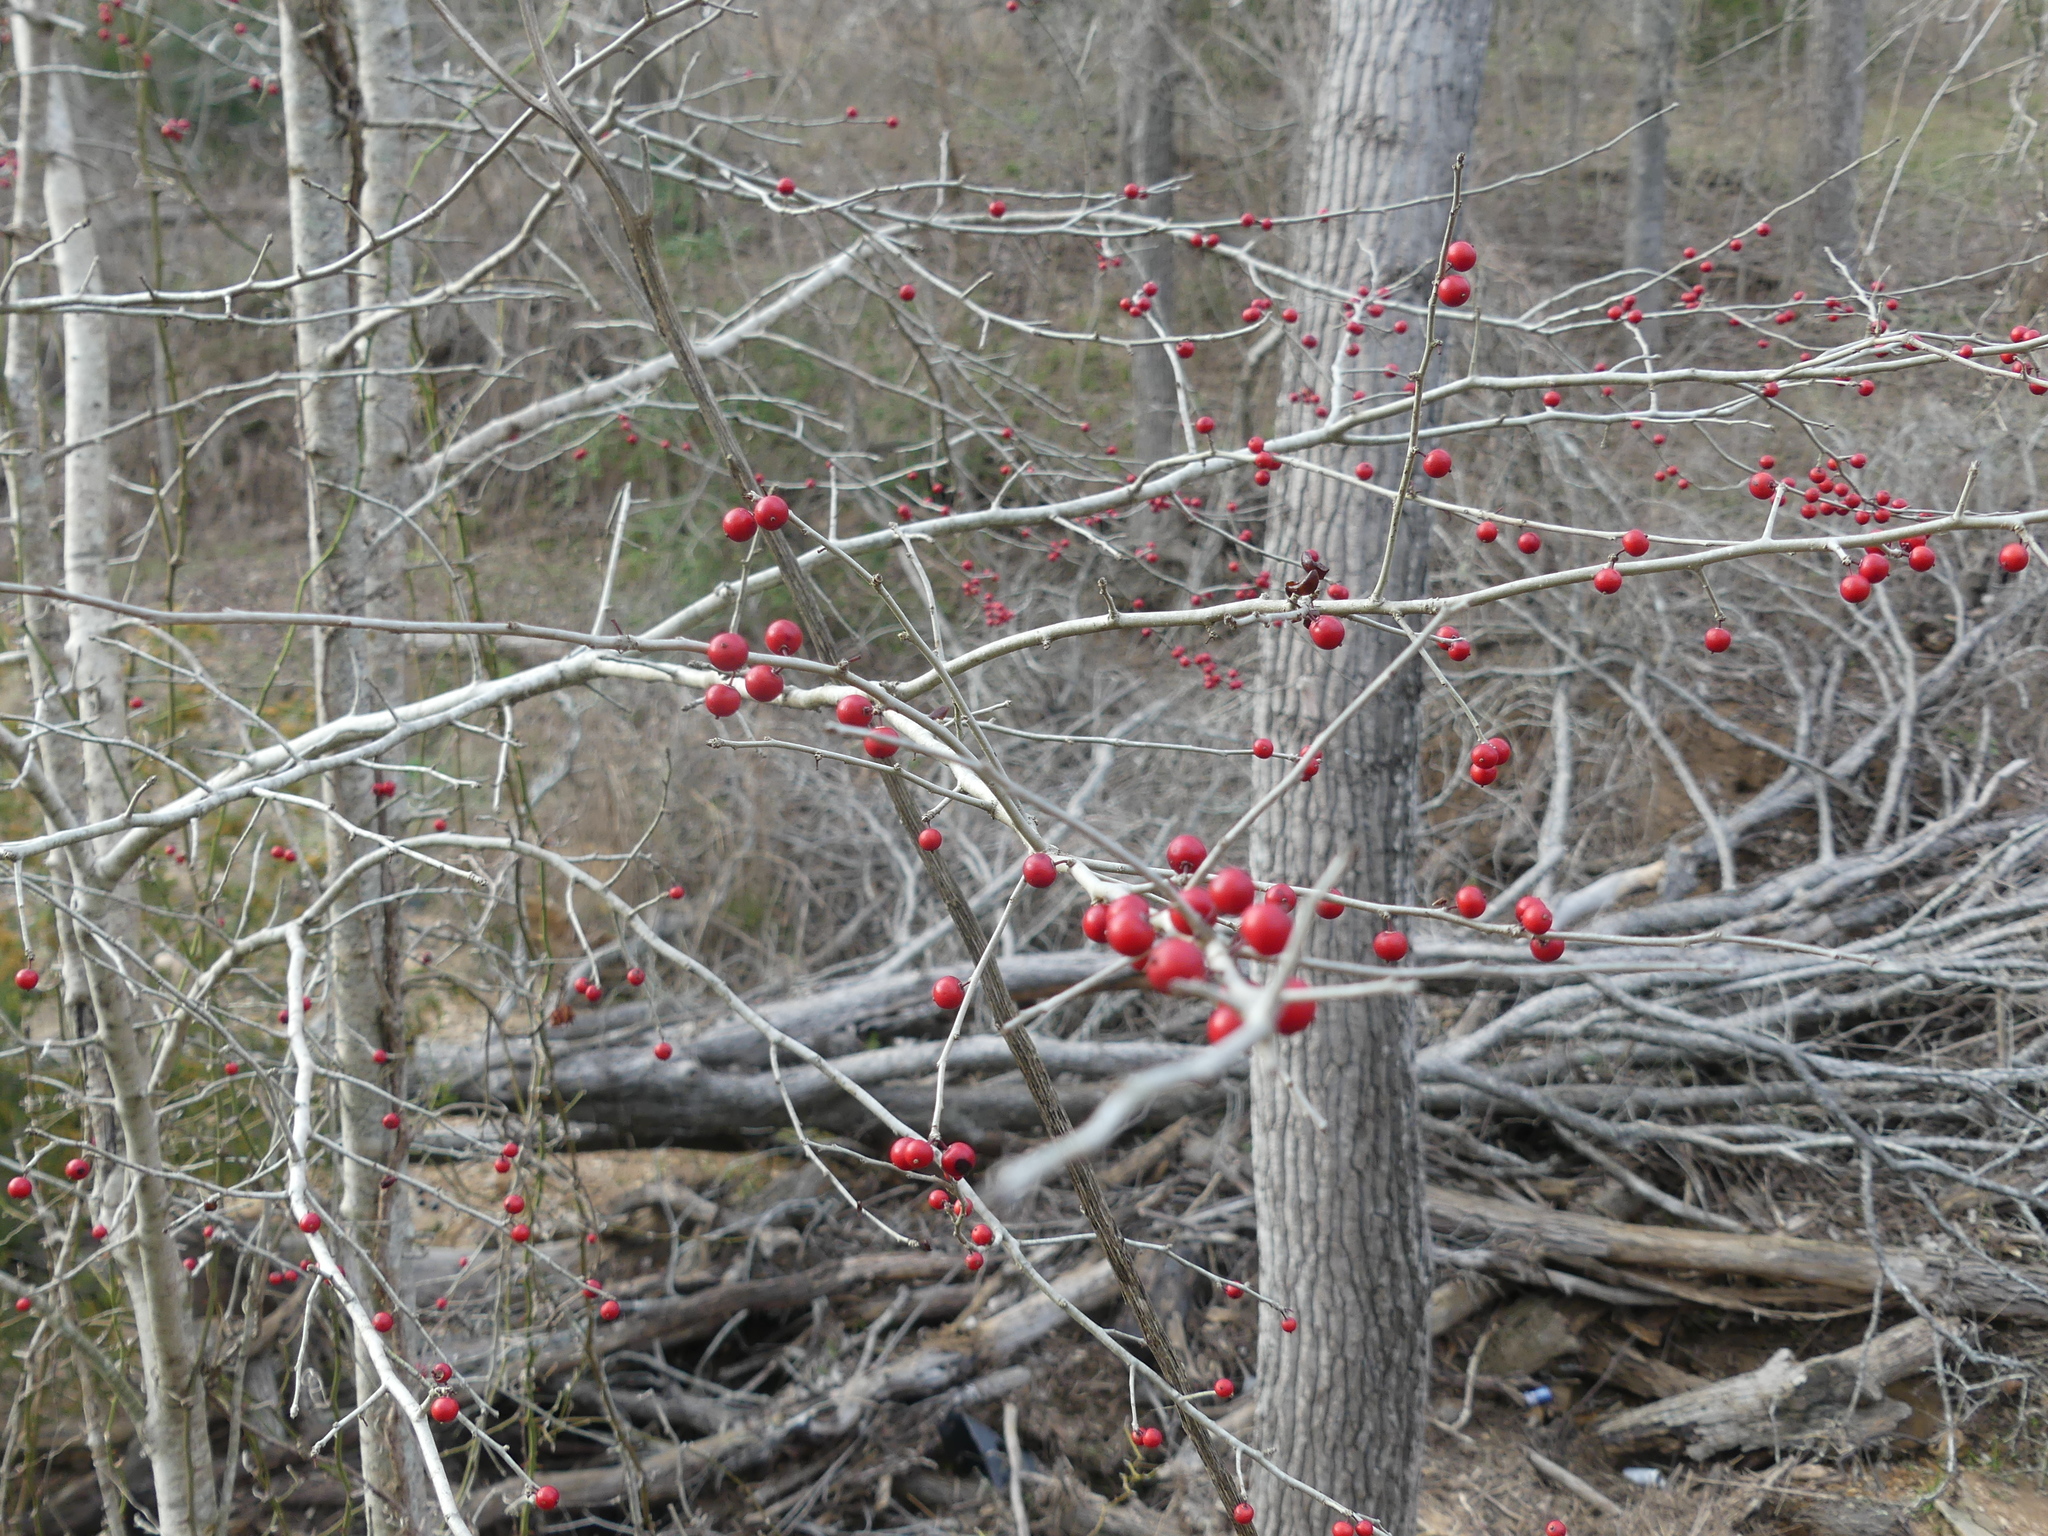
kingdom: Plantae
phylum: Tracheophyta
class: Magnoliopsida
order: Aquifoliales
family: Aquifoliaceae
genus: Ilex
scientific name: Ilex decidua
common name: Possum-haw
